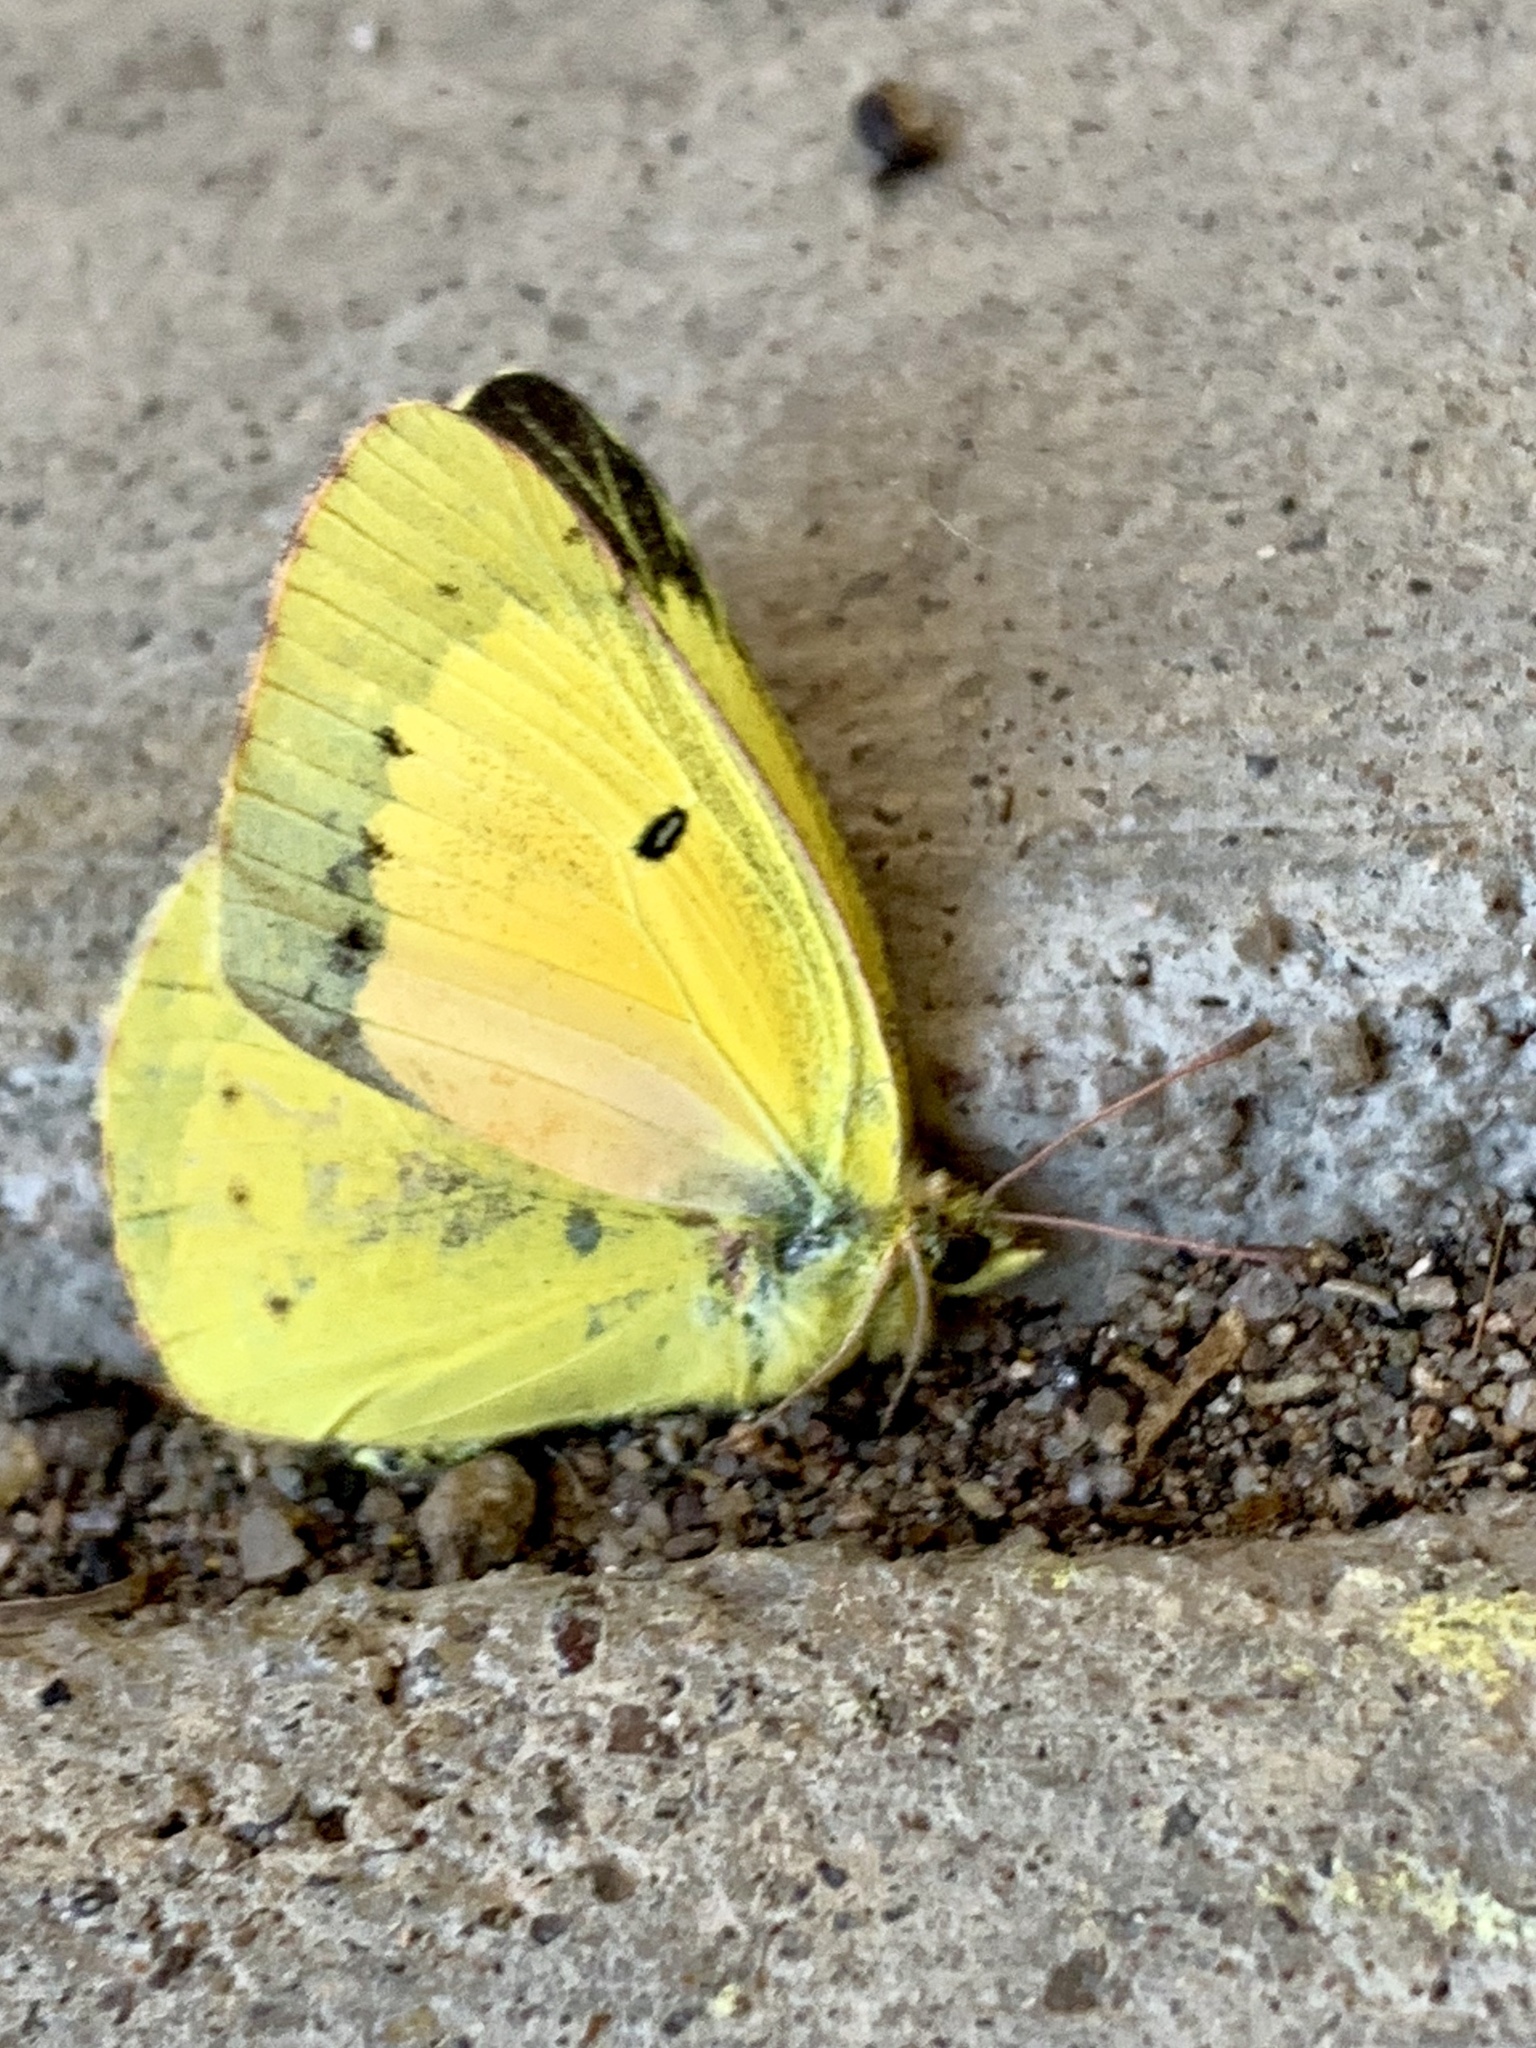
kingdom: Animalia
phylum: Arthropoda
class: Insecta
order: Lepidoptera
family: Pieridae
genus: Colias
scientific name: Colias eurytheme
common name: Alfalfa butterfly
